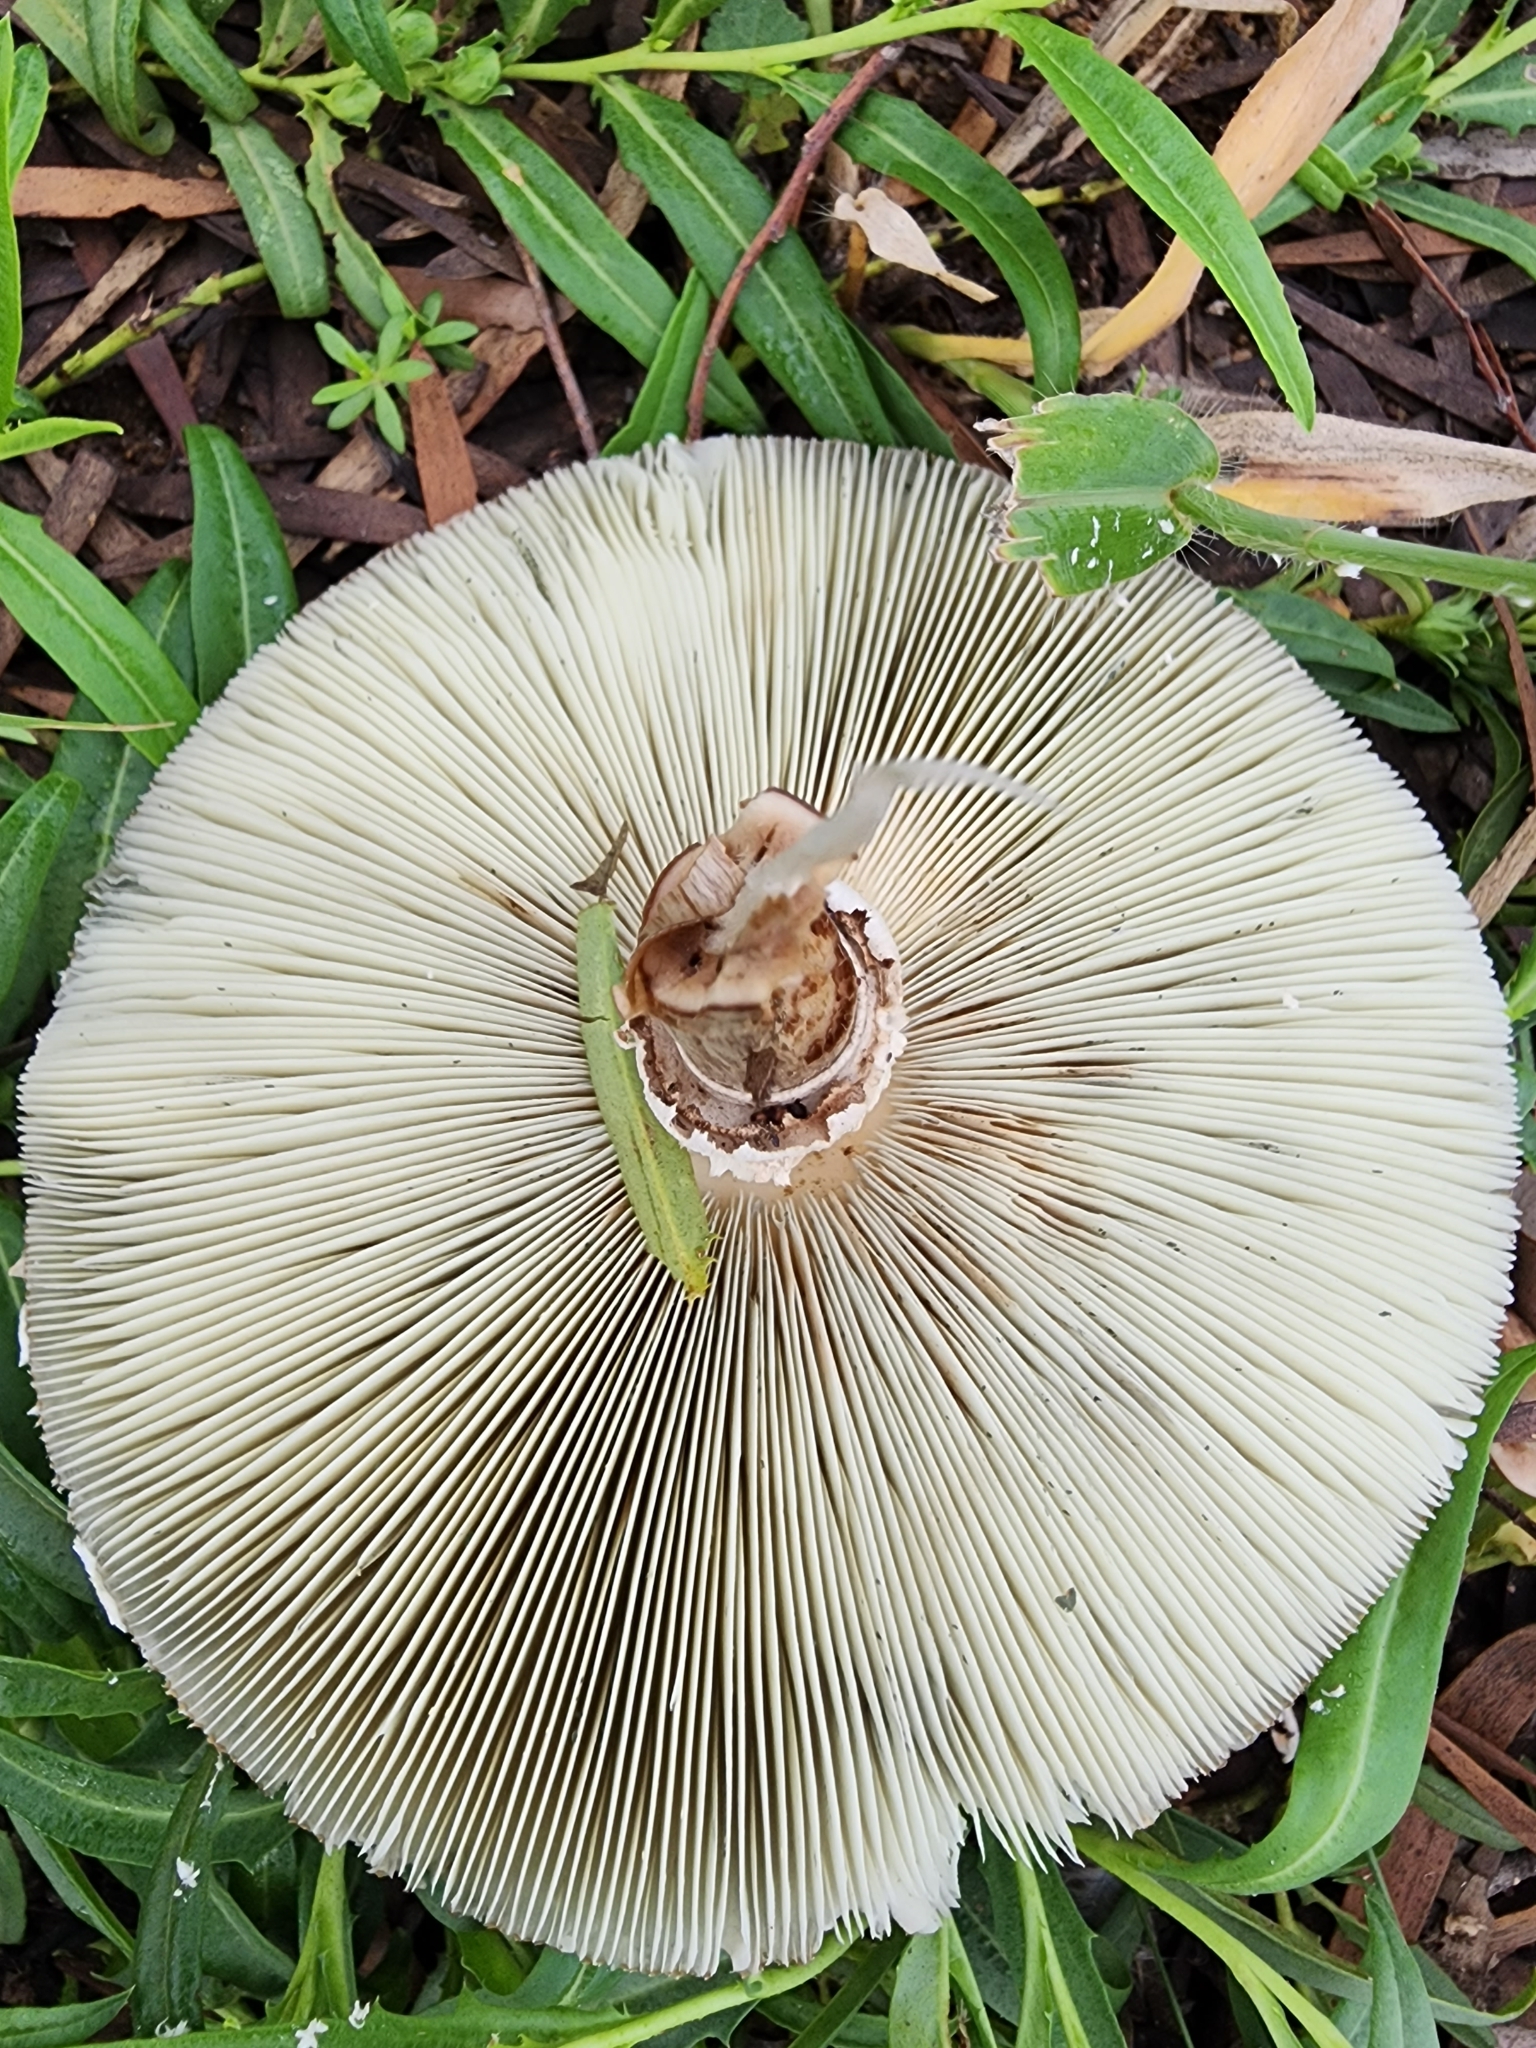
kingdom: Fungi
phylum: Basidiomycota
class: Agaricomycetes
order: Agaricales
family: Agaricaceae
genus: Chlorophyllum
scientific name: Chlorophyllum molybdites
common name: False parasol
